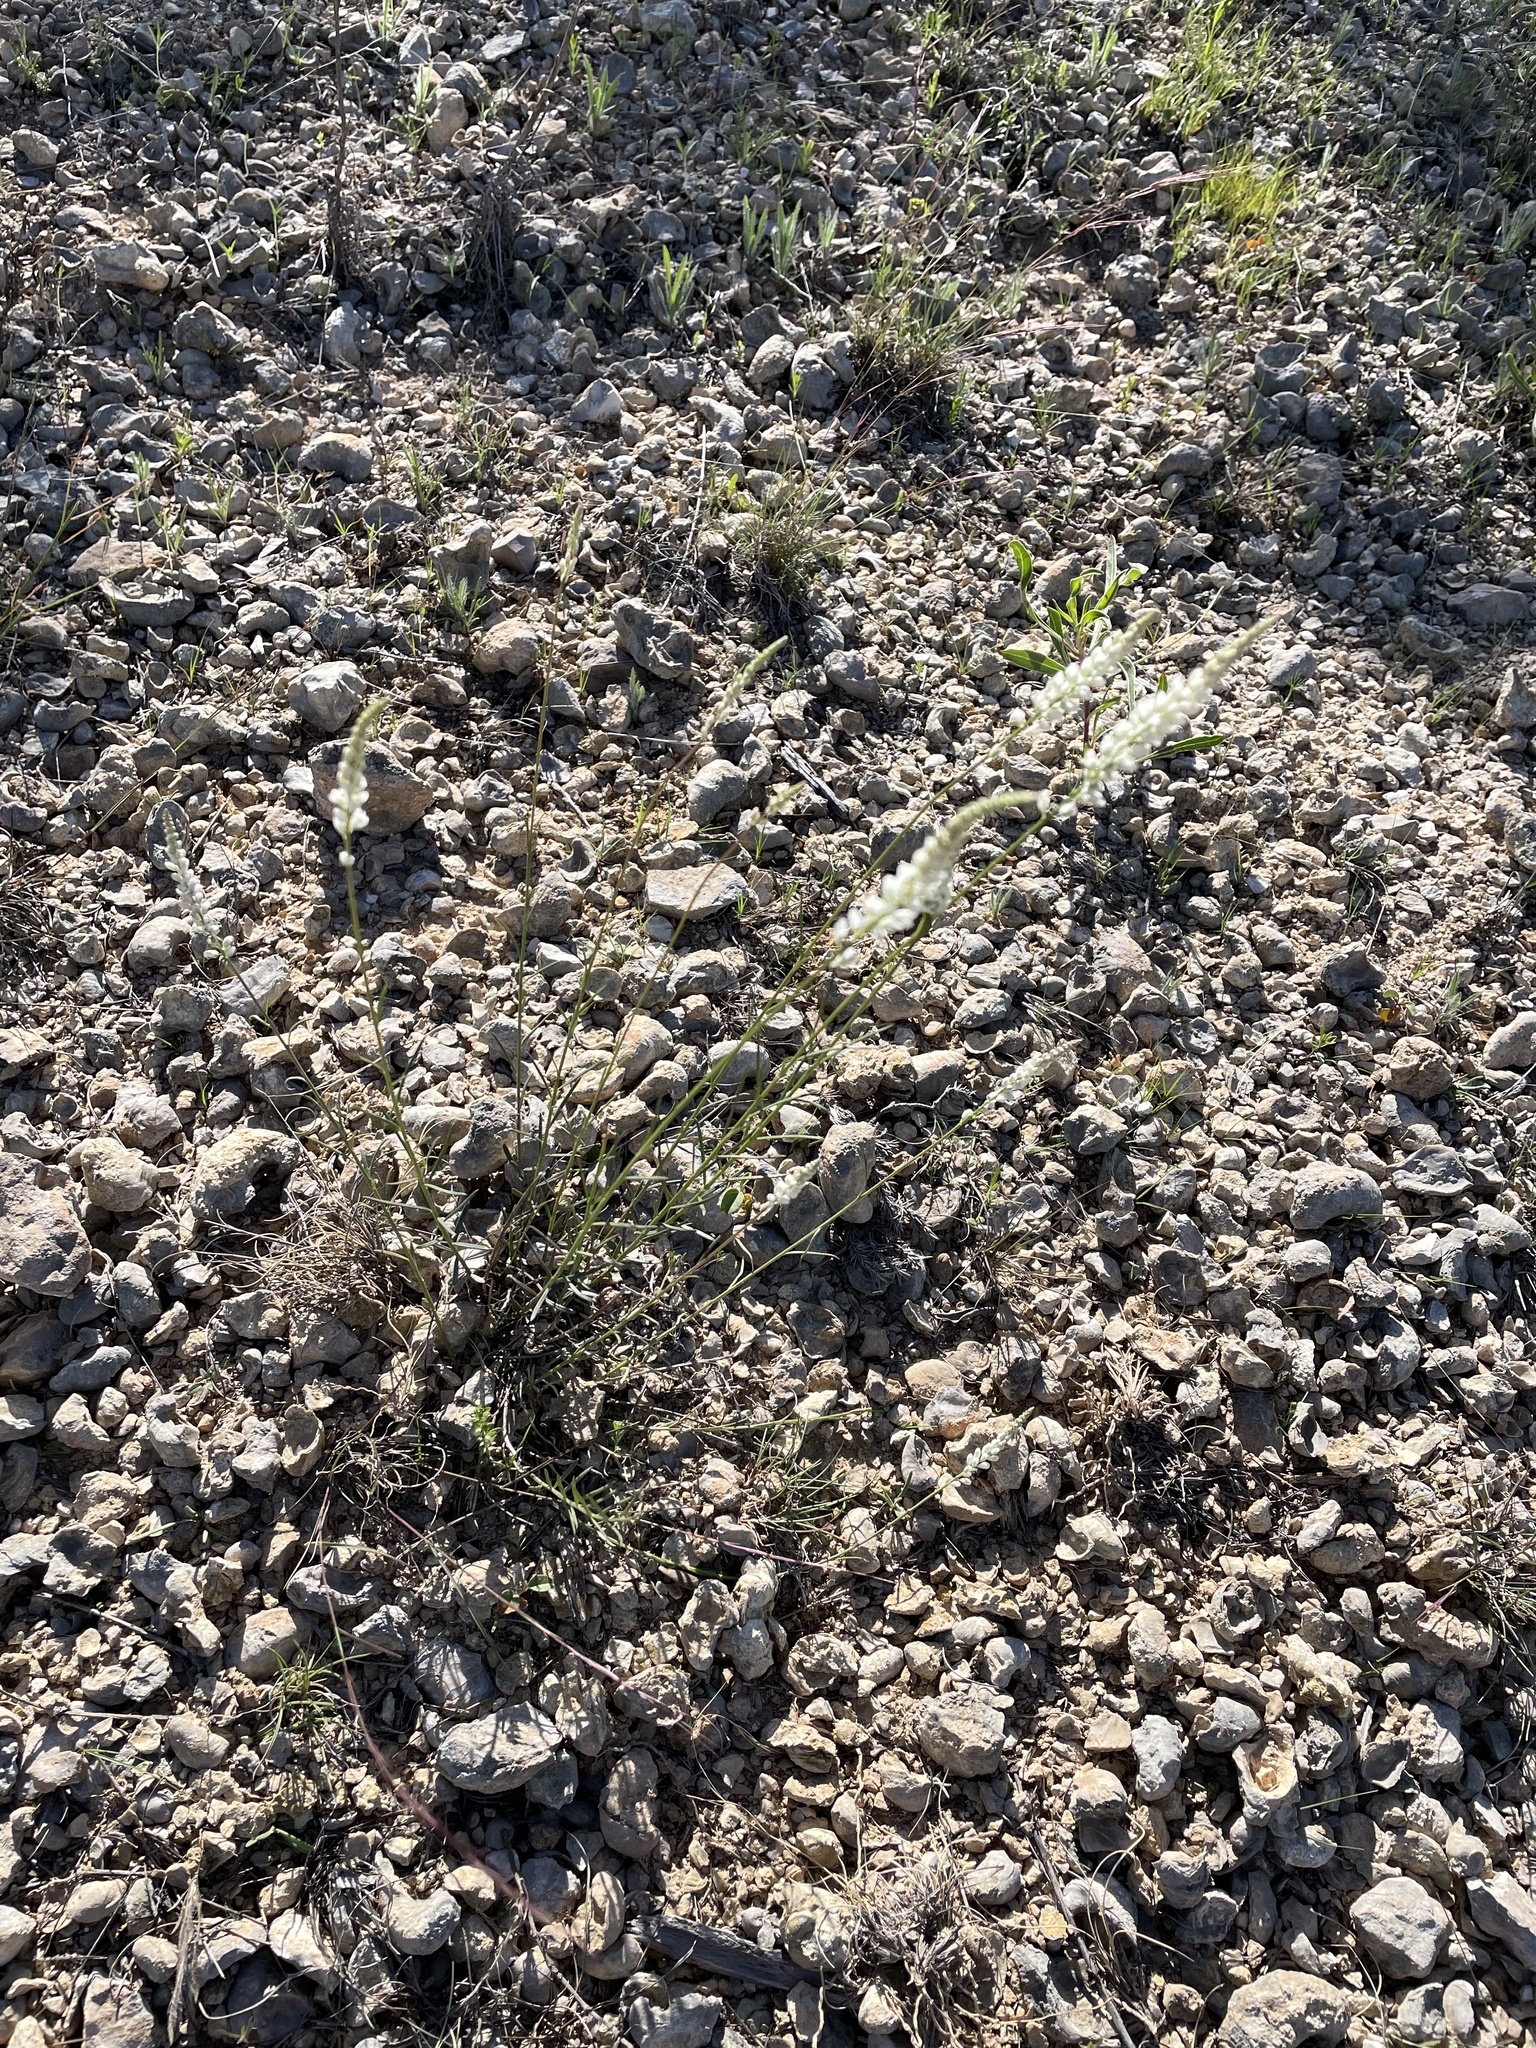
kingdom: Plantae
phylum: Tracheophyta
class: Magnoliopsida
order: Fabales
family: Polygalaceae
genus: Polygala
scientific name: Polygala alba
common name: White milkwort
